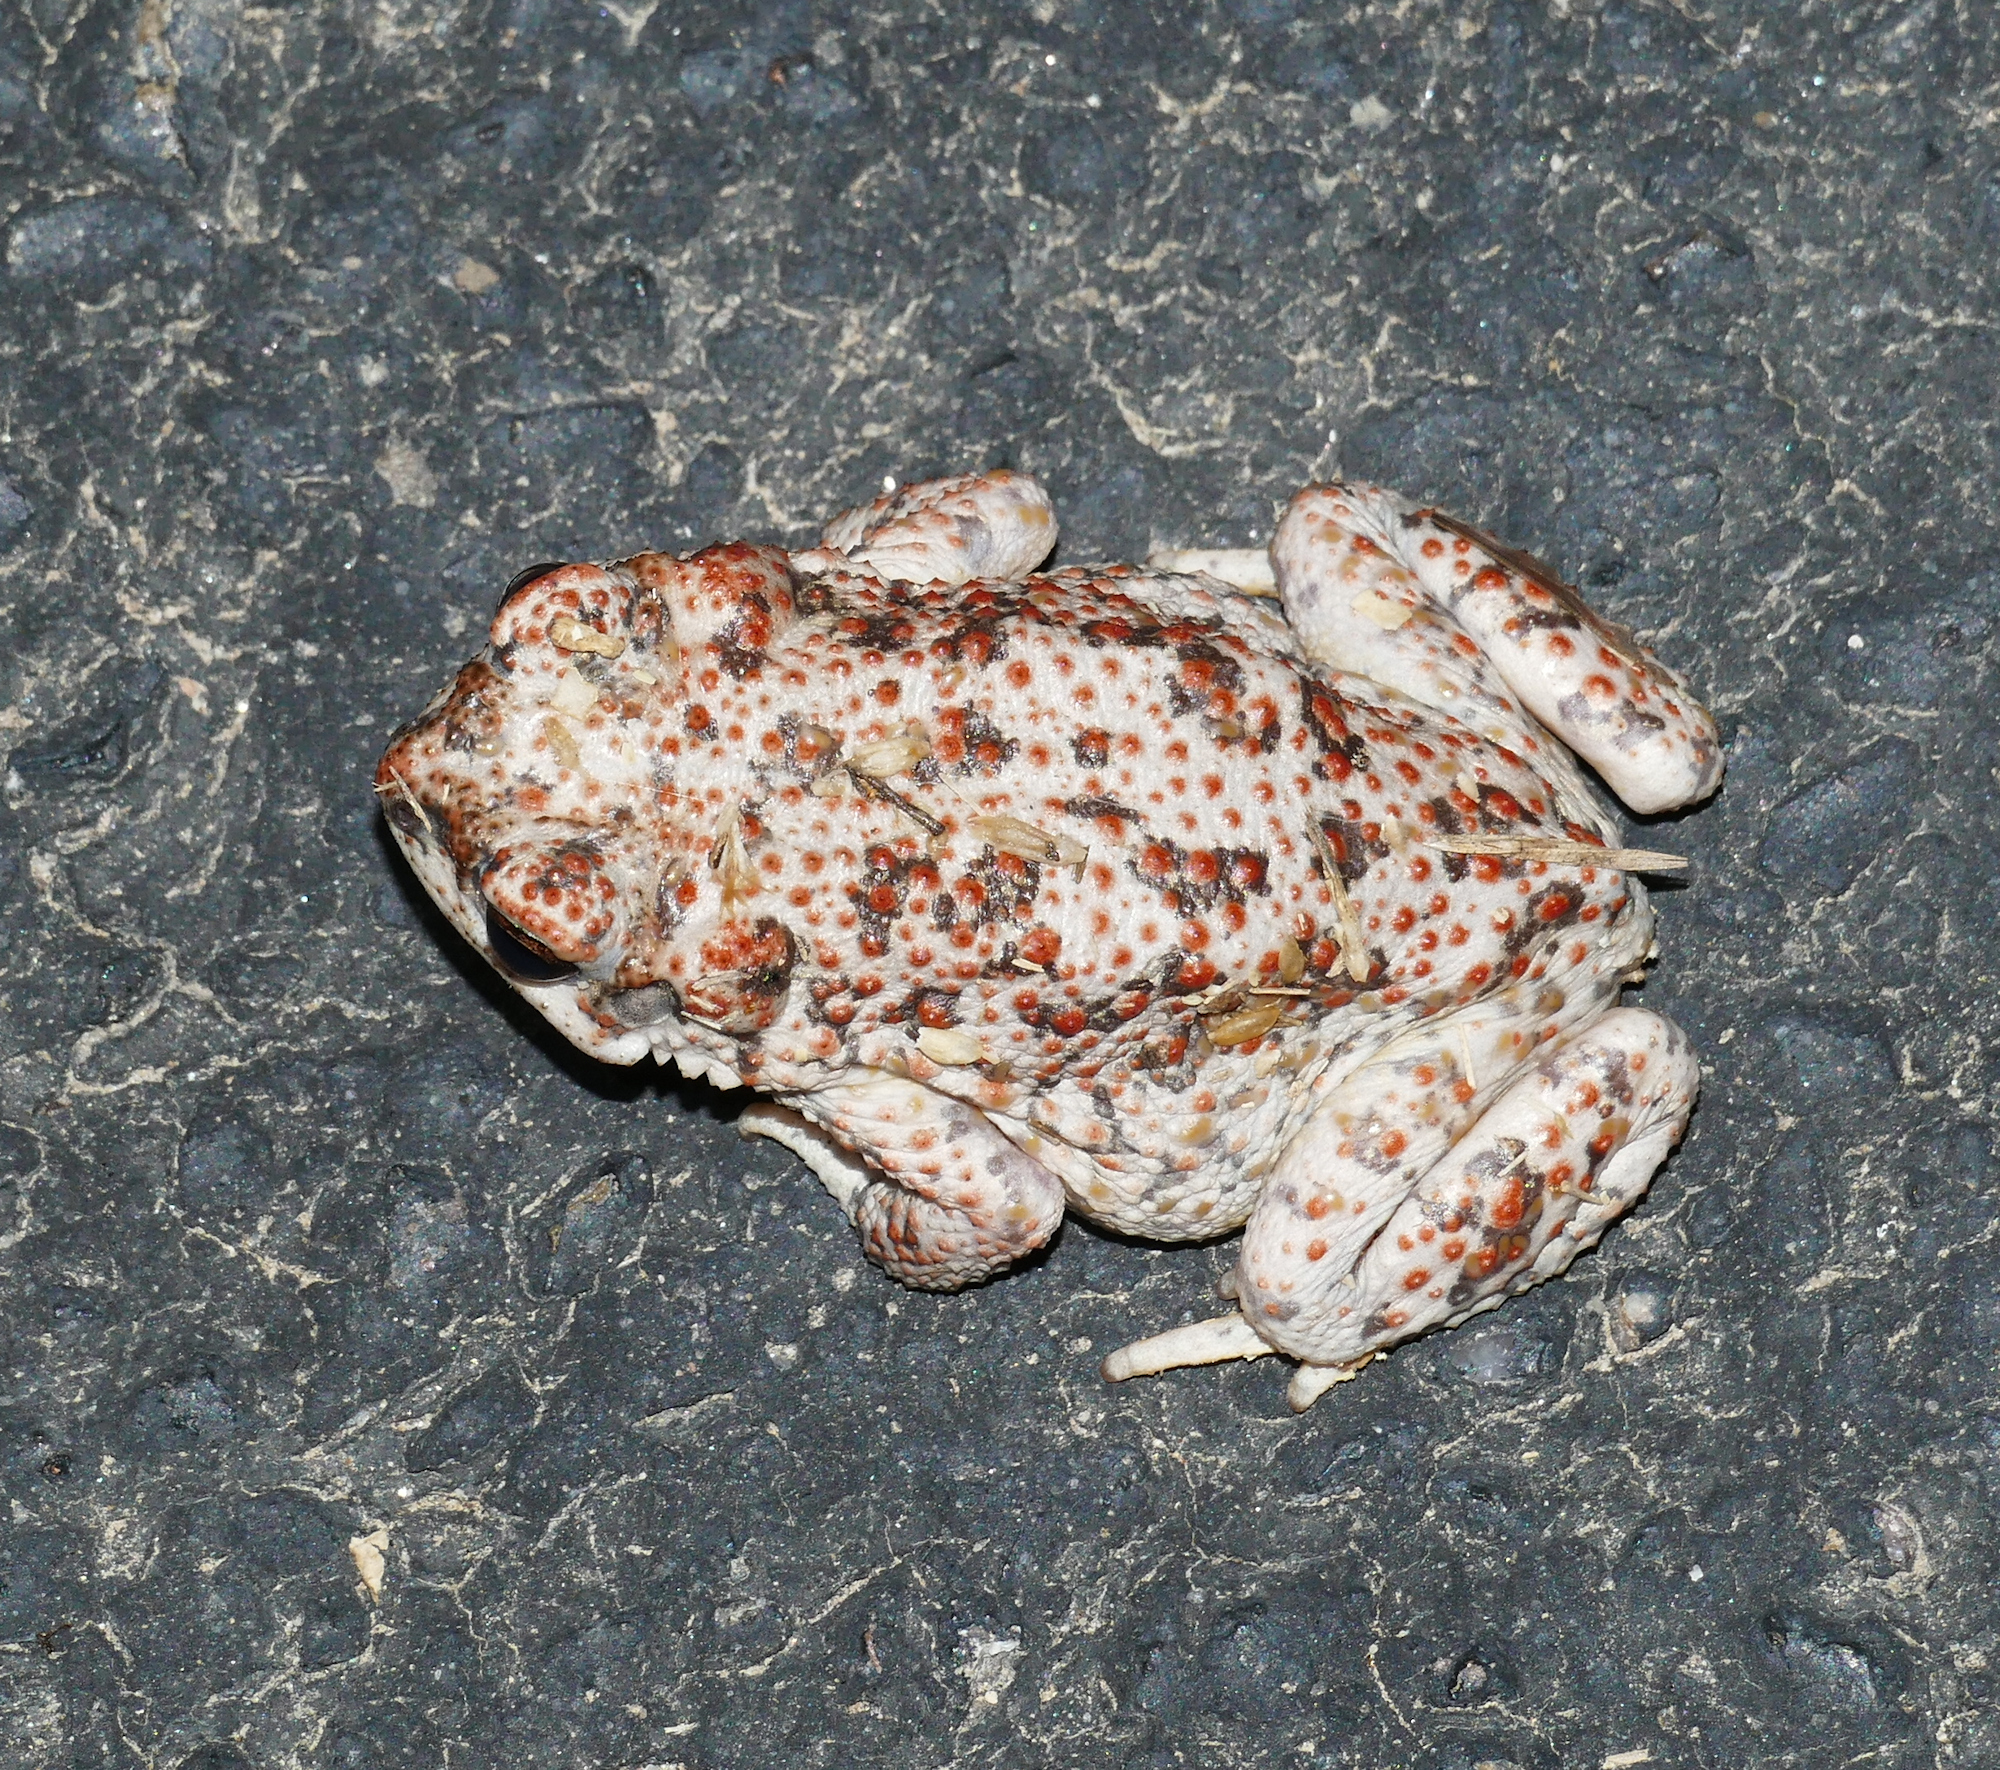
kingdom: Animalia
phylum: Chordata
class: Amphibia
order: Anura
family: Bufonidae
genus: Anaxyrus
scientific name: Anaxyrus punctatus
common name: Red-spotted toad
